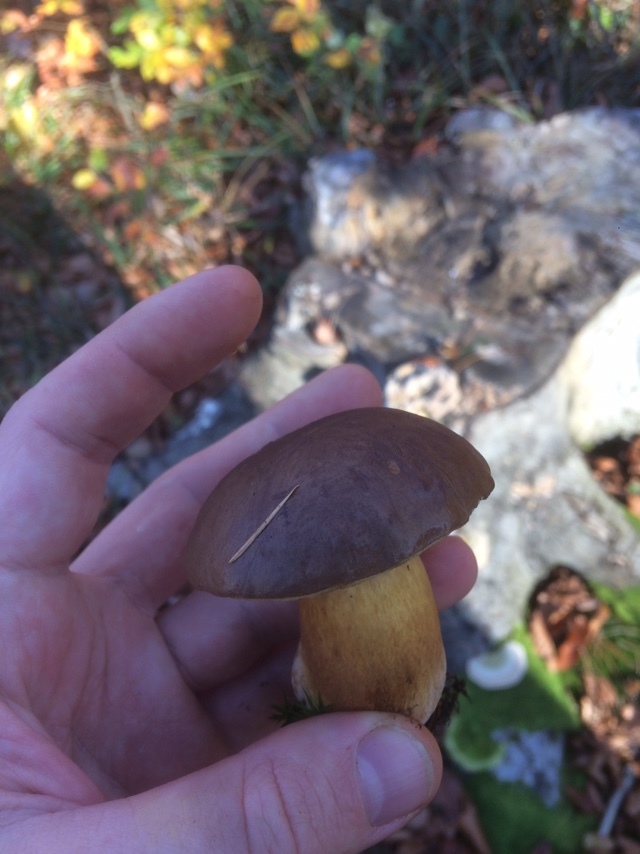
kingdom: Fungi
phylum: Basidiomycota
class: Agaricomycetes
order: Boletales
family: Boletaceae
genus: Imleria
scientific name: Imleria badia
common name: Bay bolete
